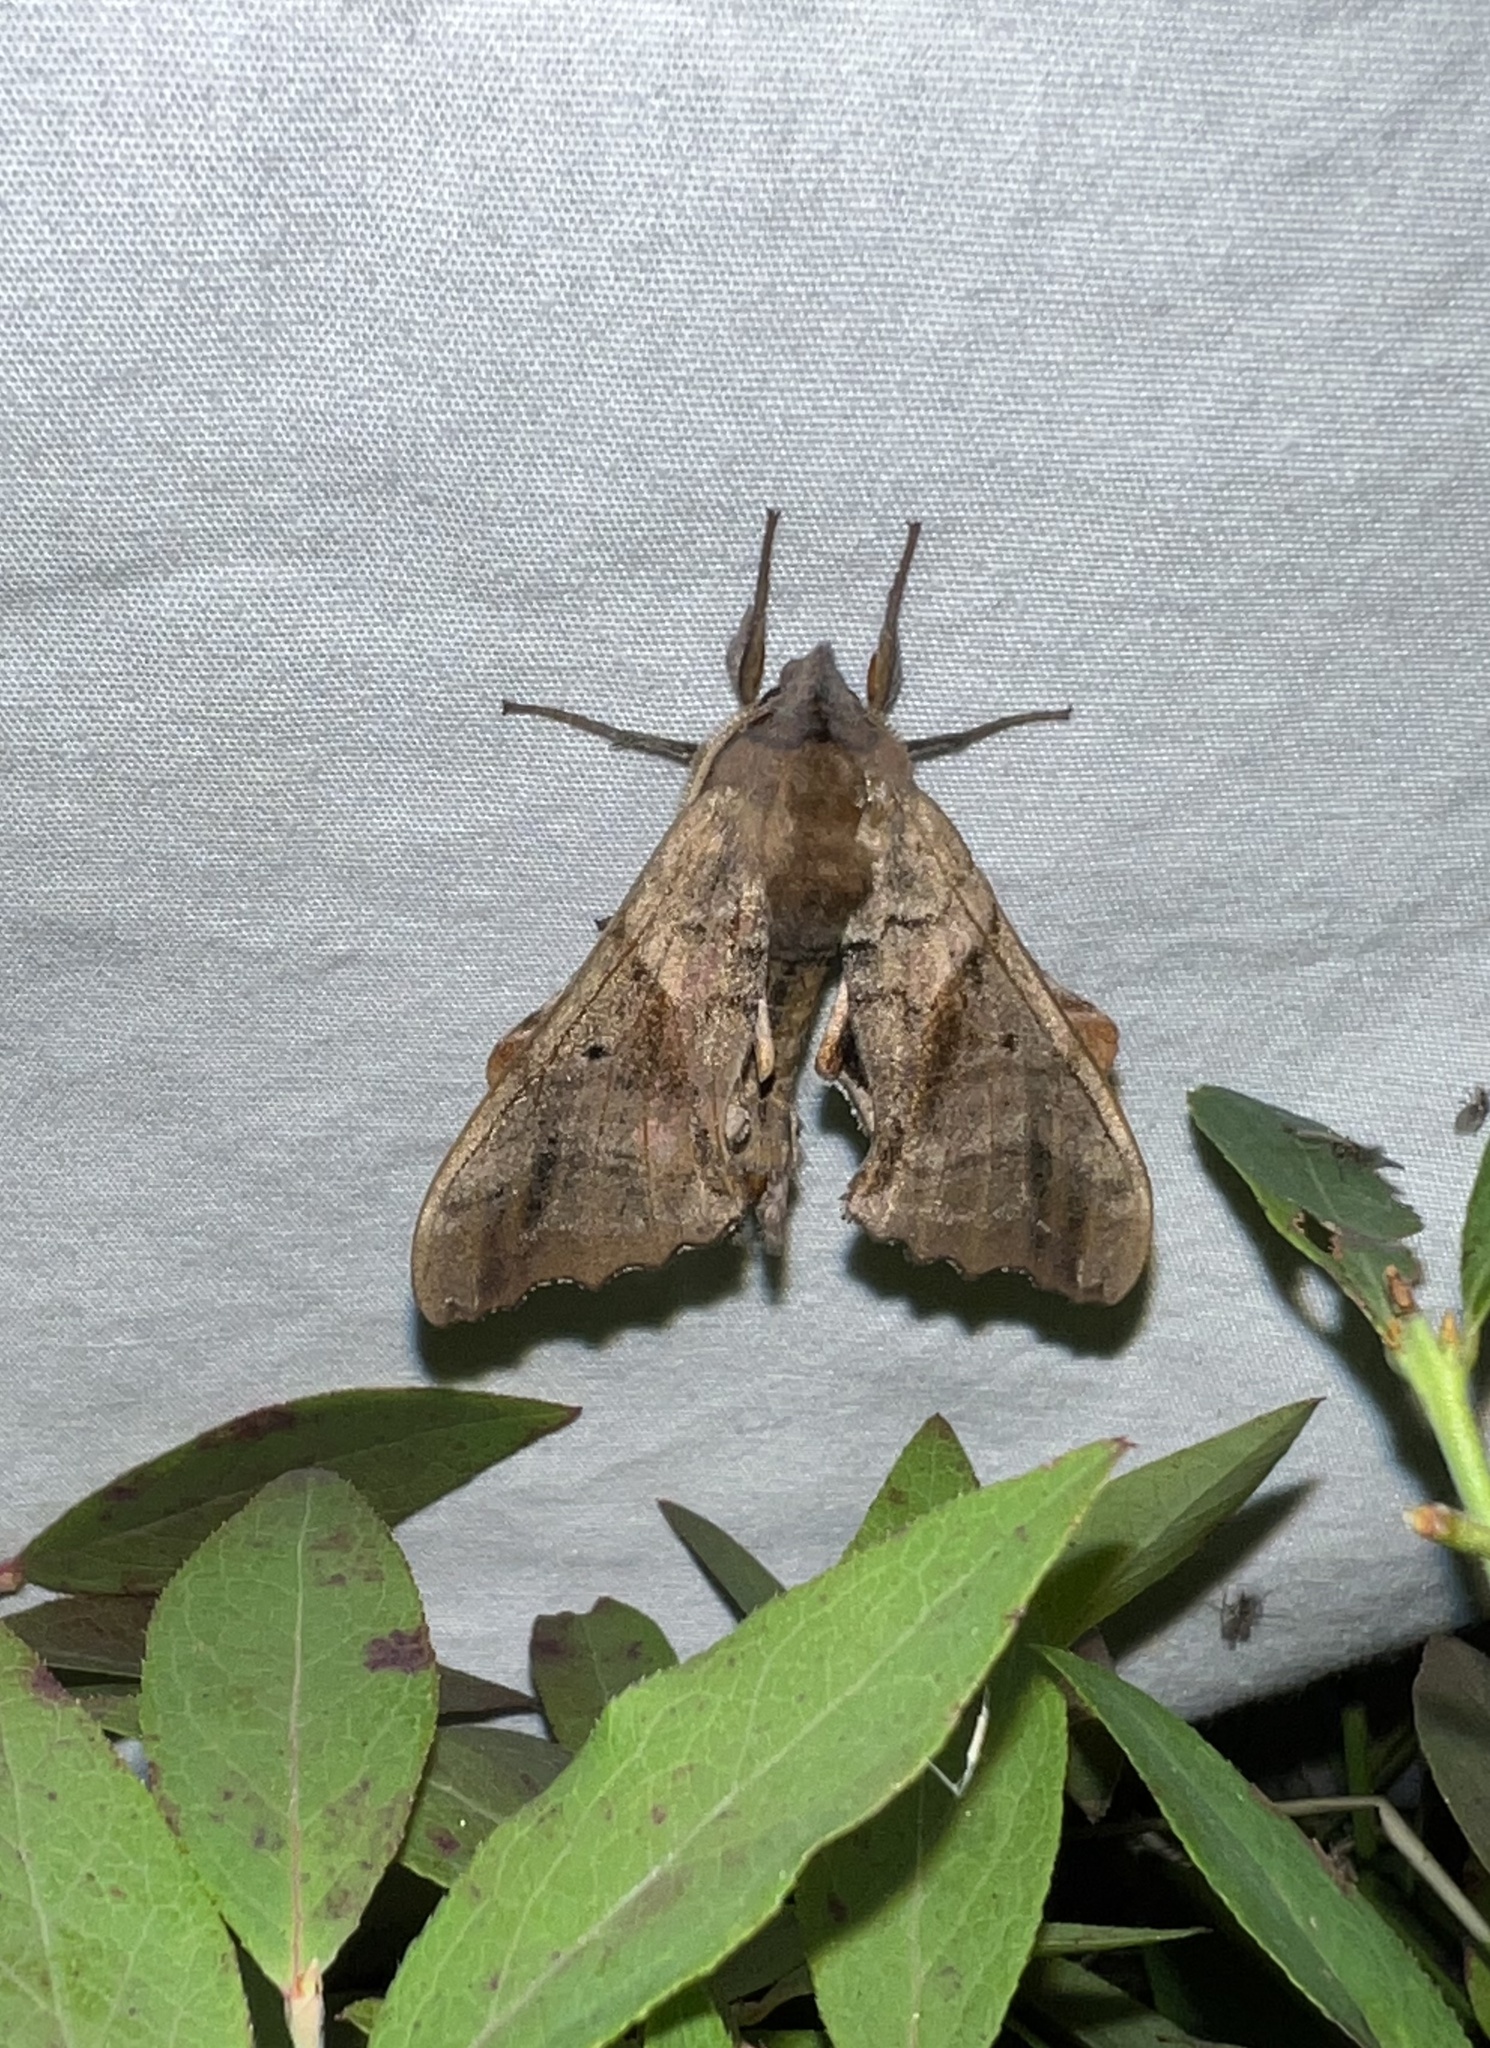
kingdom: Animalia
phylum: Arthropoda
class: Insecta
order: Lepidoptera
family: Sphingidae
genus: Paonias
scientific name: Paonias excaecata
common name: Blind-eyed sphinx
